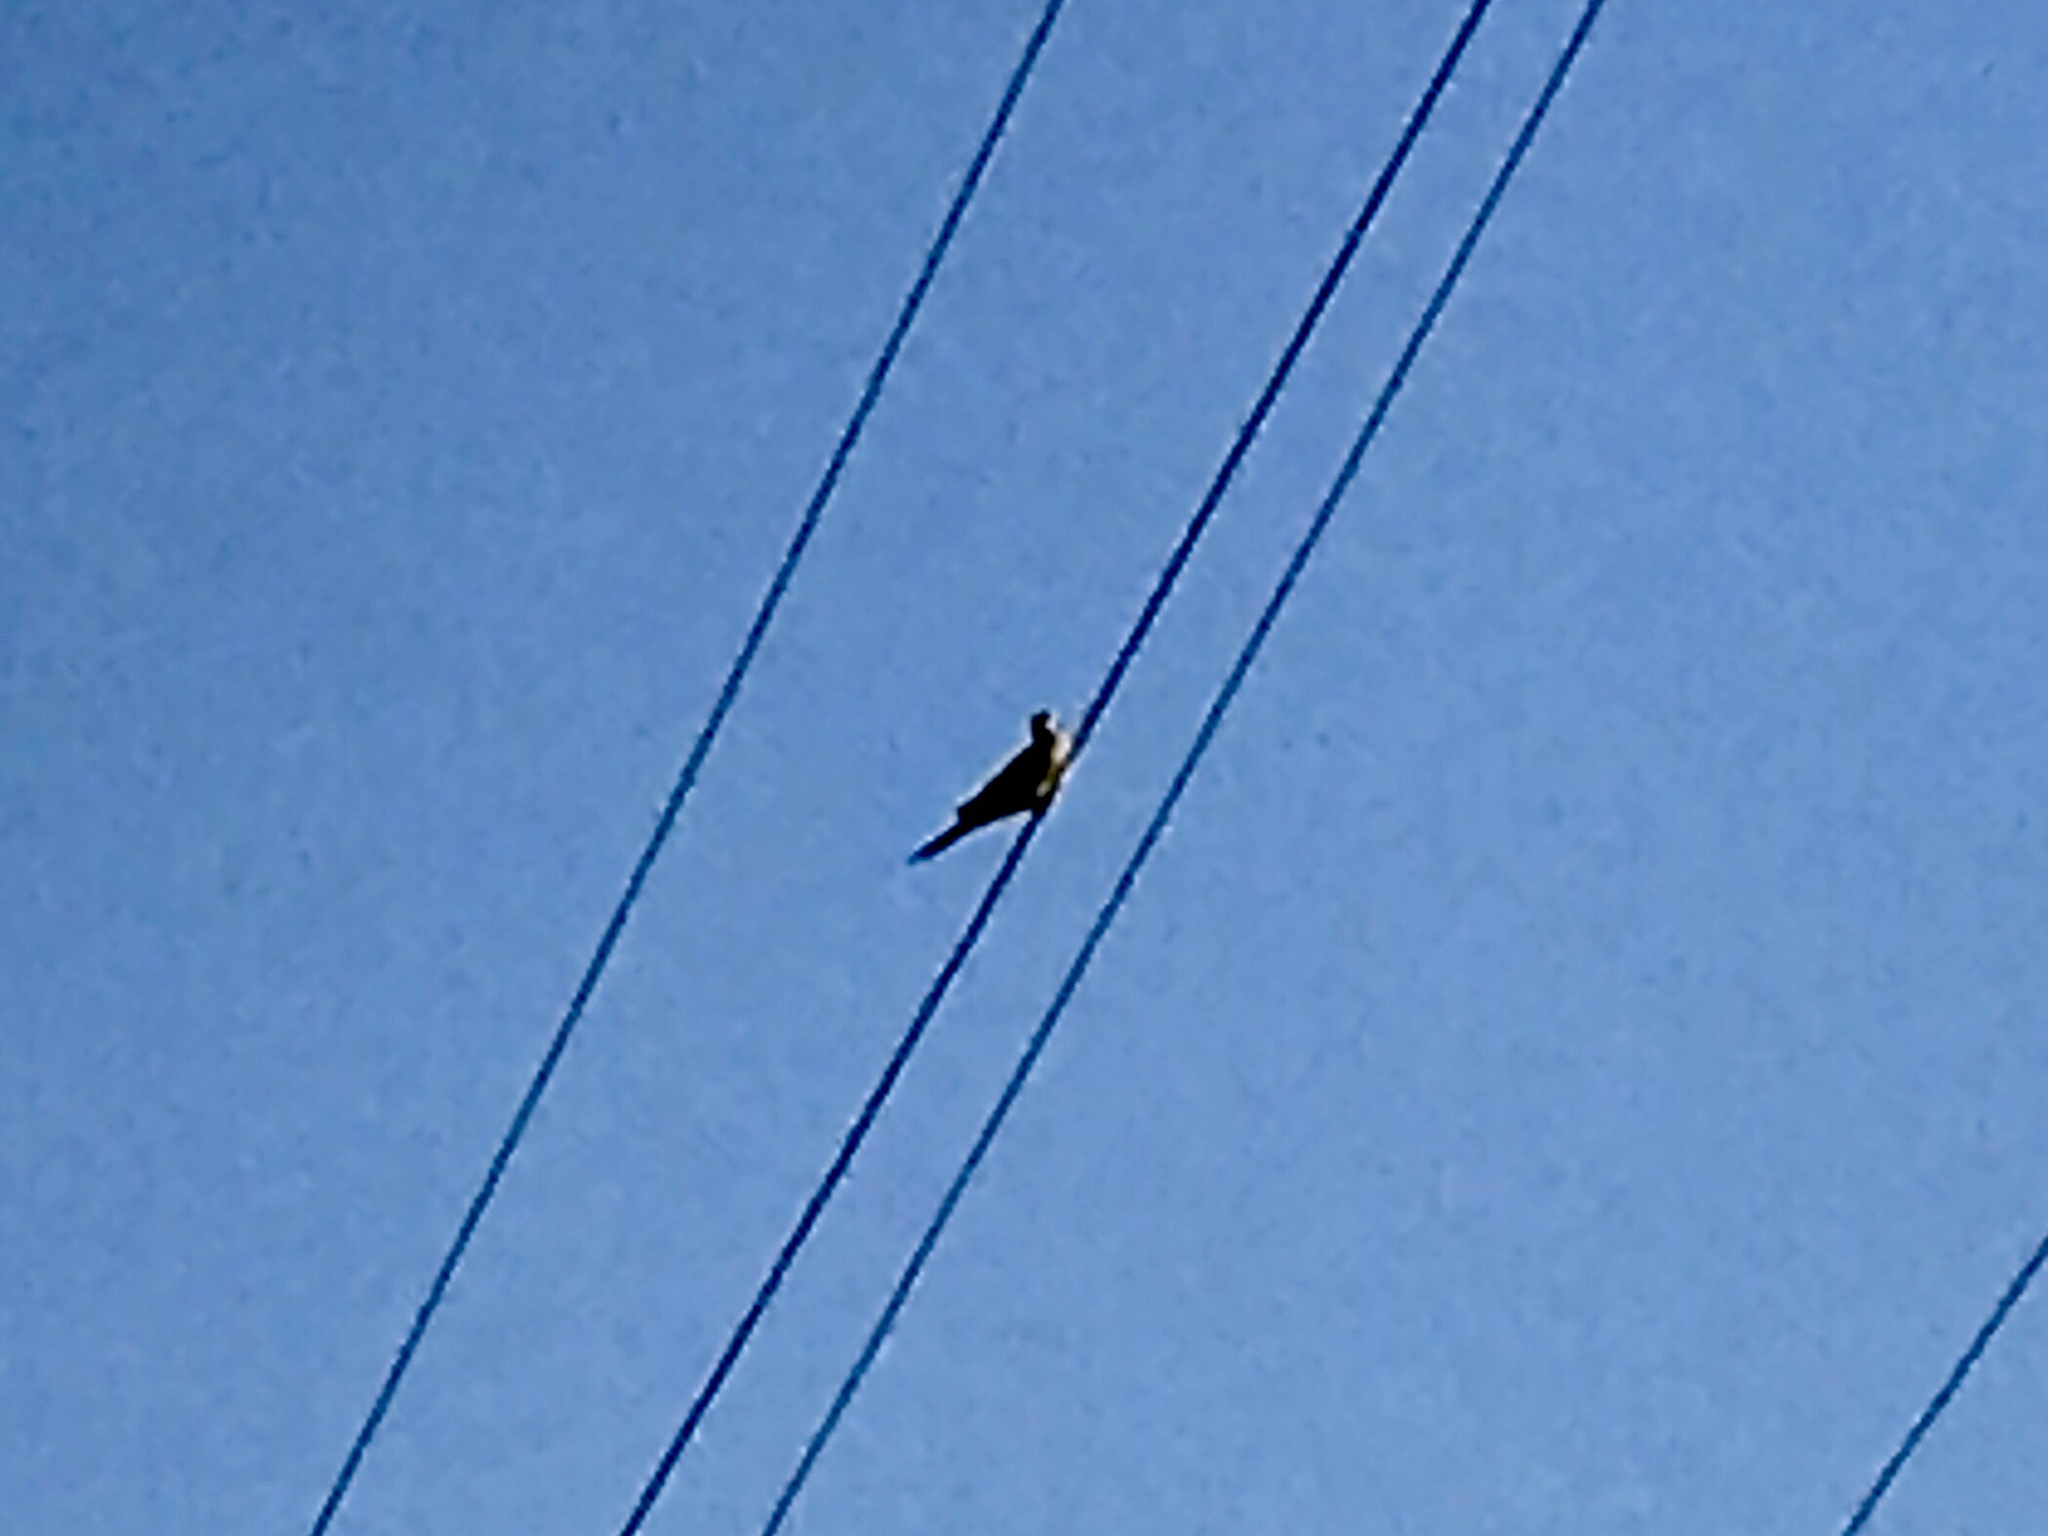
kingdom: Animalia
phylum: Chordata
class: Aves
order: Columbiformes
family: Columbidae
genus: Zenaida
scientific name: Zenaida macroura
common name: Mourning dove
